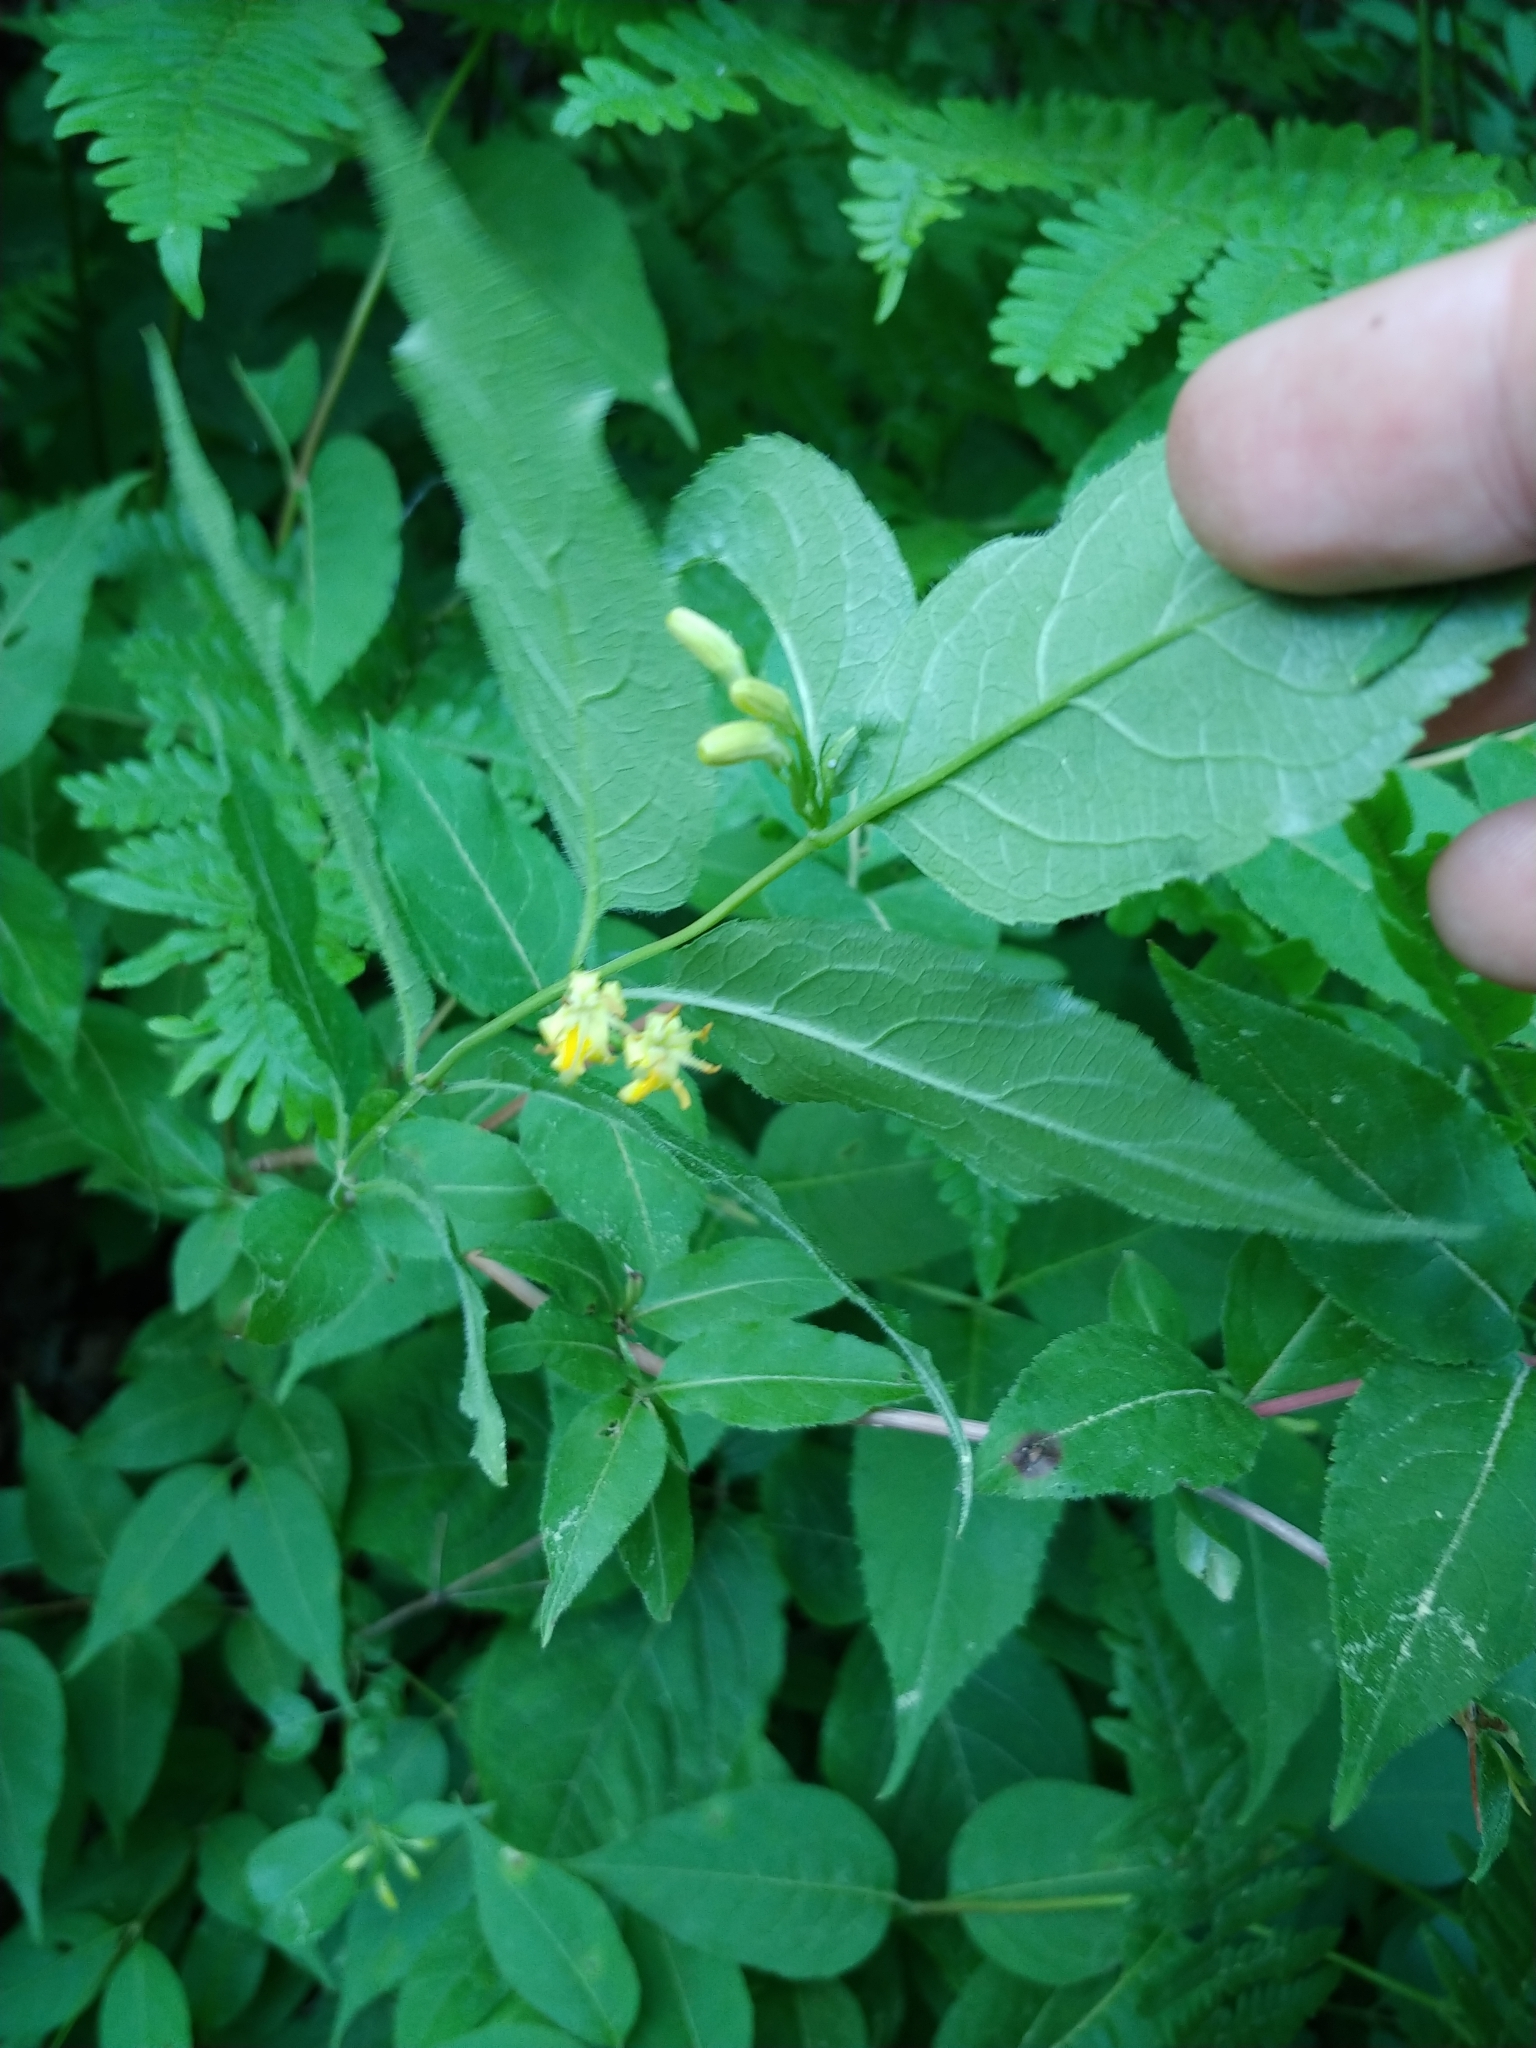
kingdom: Plantae
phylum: Tracheophyta
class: Magnoliopsida
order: Dipsacales
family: Caprifoliaceae
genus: Diervilla
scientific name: Diervilla lonicera
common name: Bush-honeysuckle
